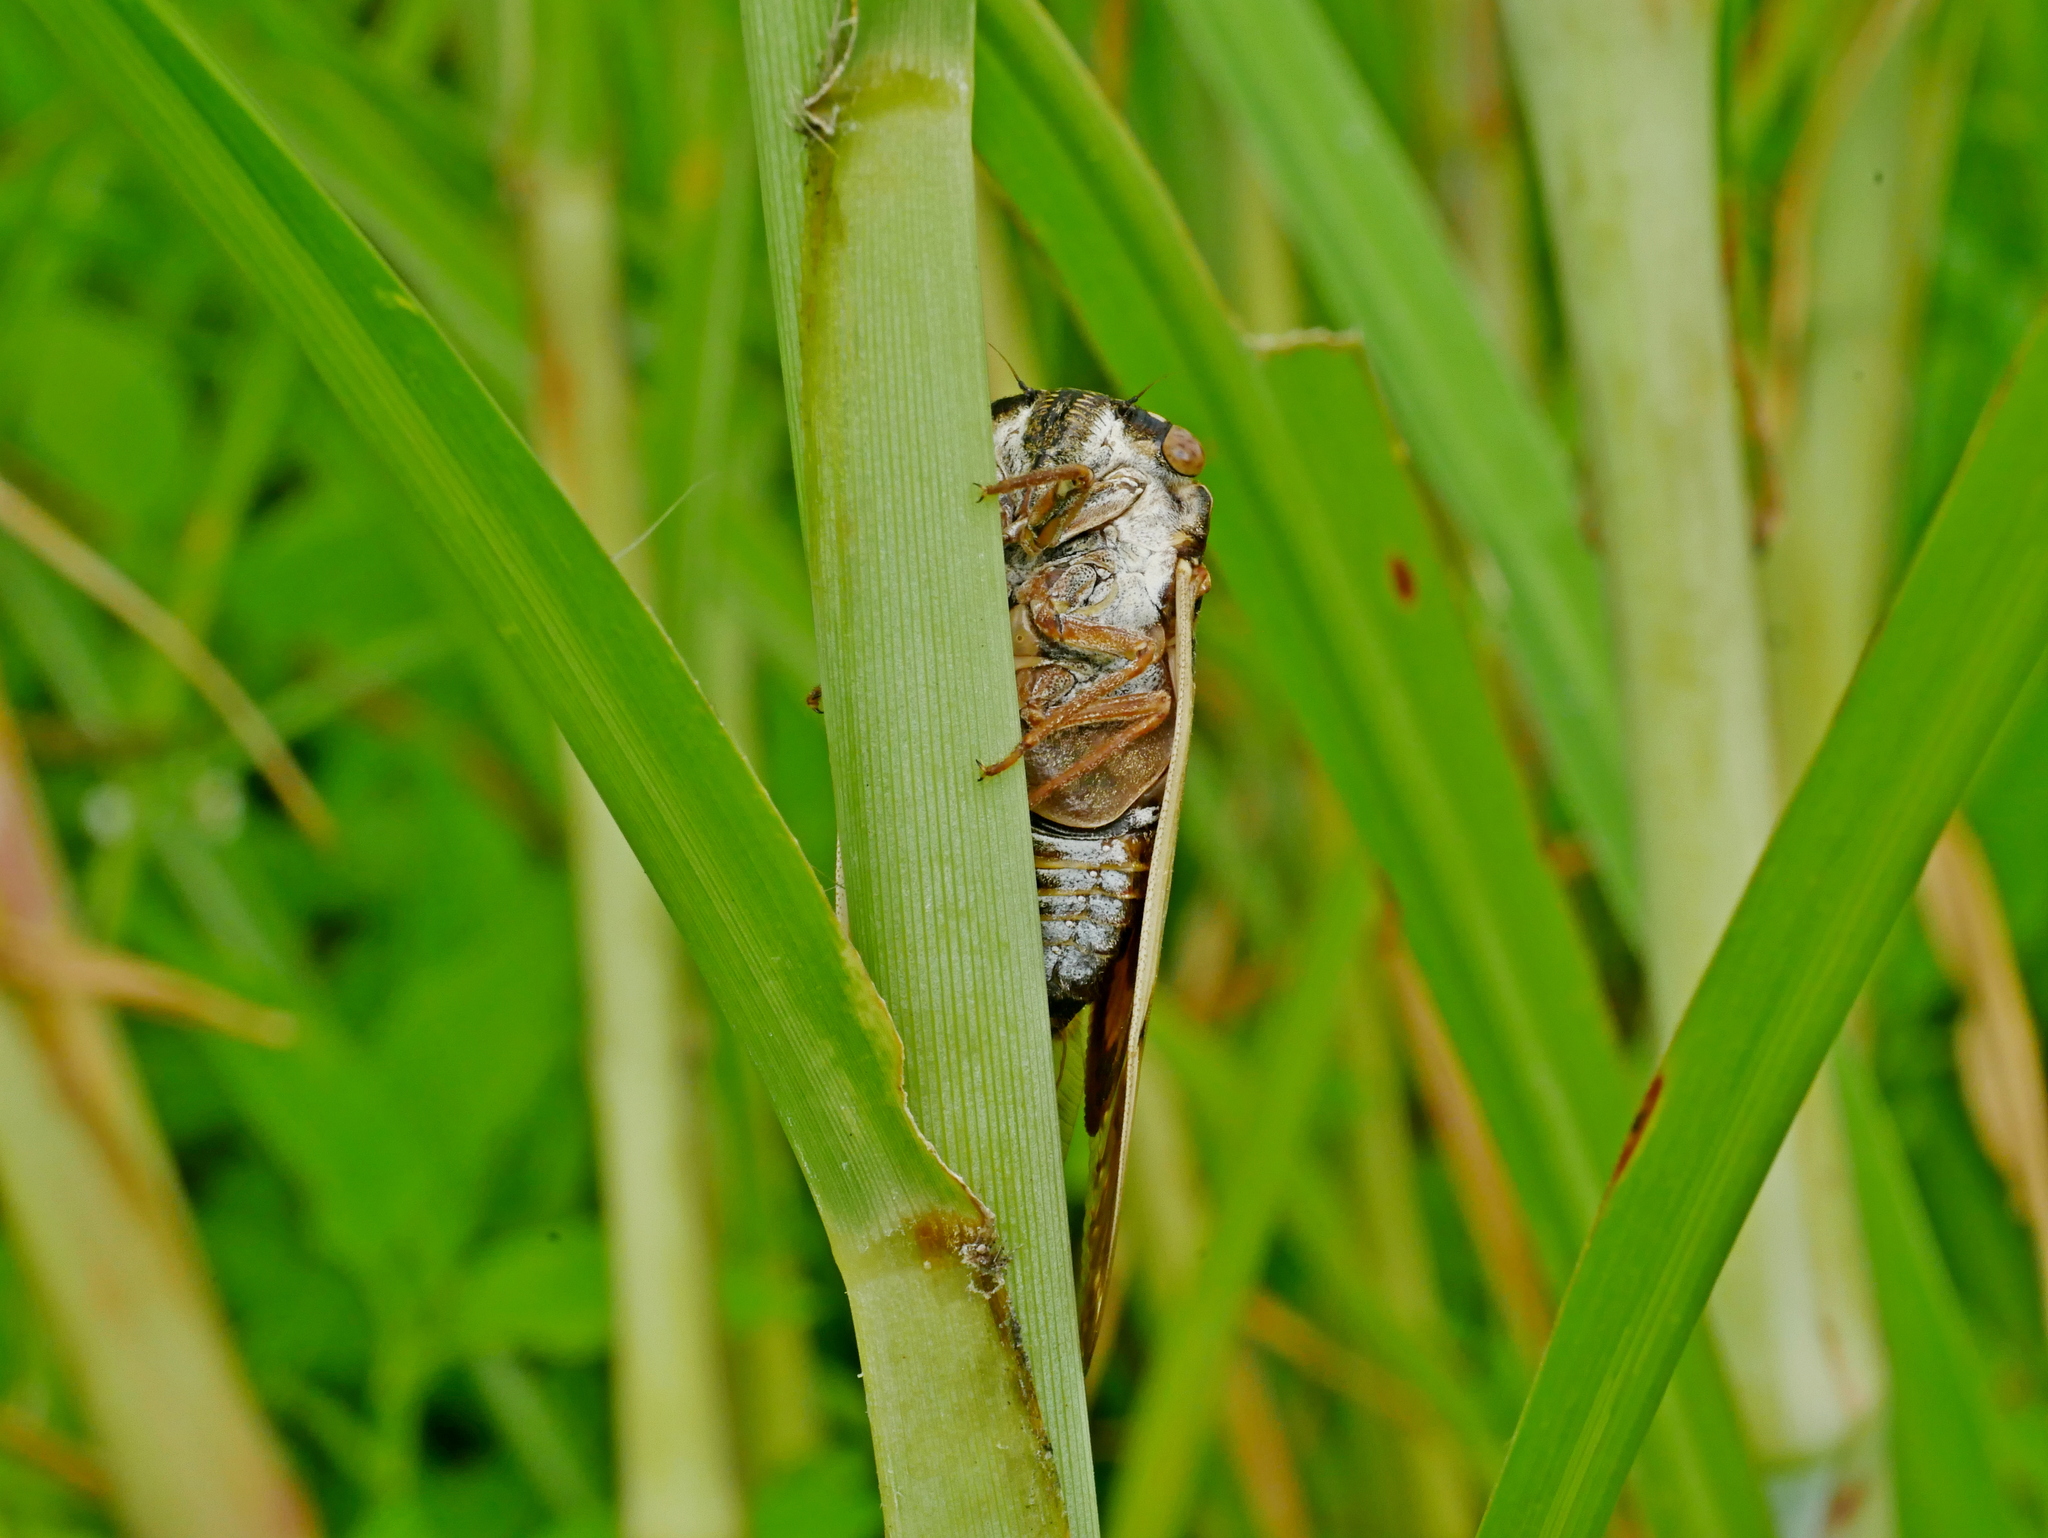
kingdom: Animalia
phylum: Arthropoda
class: Insecta
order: Hemiptera
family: Cicadidae
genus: Platypleura
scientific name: Platypleura hilpa
